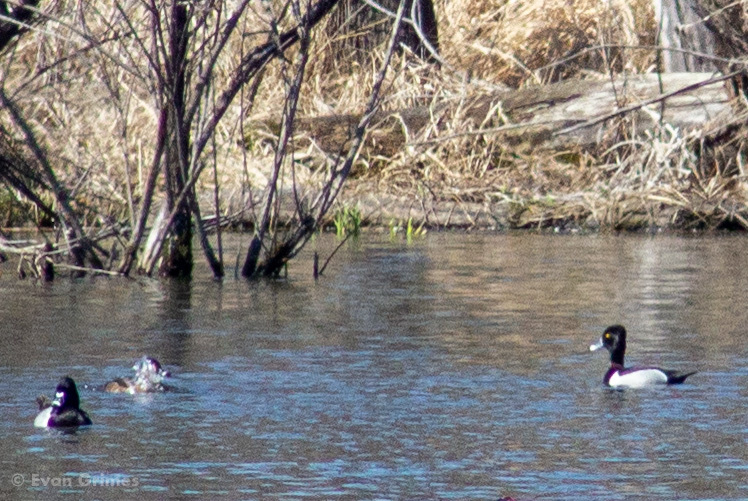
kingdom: Animalia
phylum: Chordata
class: Aves
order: Anseriformes
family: Anatidae
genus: Aythya
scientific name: Aythya collaris
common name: Ring-necked duck
